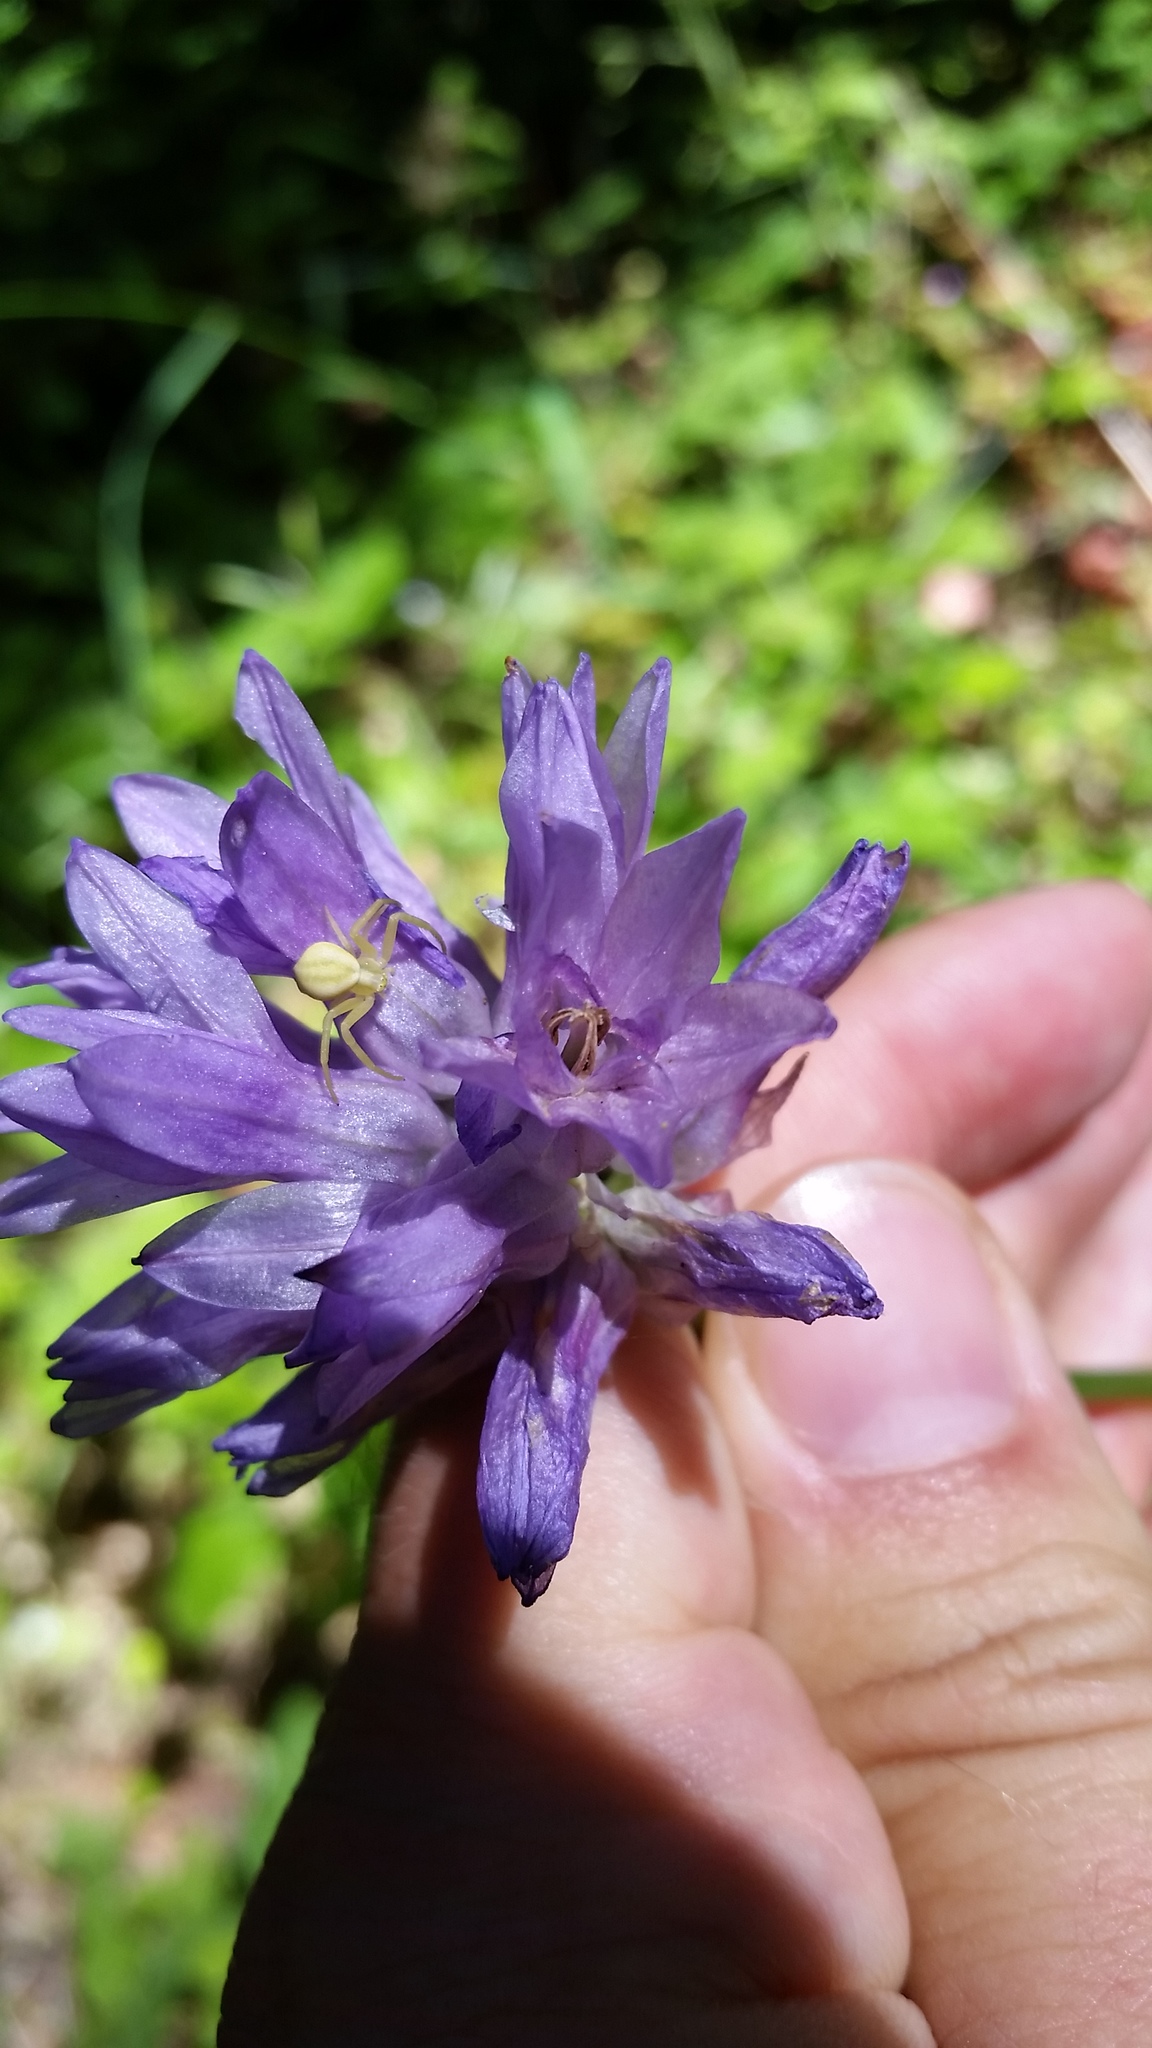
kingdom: Plantae
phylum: Tracheophyta
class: Liliopsida
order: Asparagales
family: Asparagaceae
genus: Dichelostemma
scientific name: Dichelostemma congestum
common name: Fork-tooth ookow
